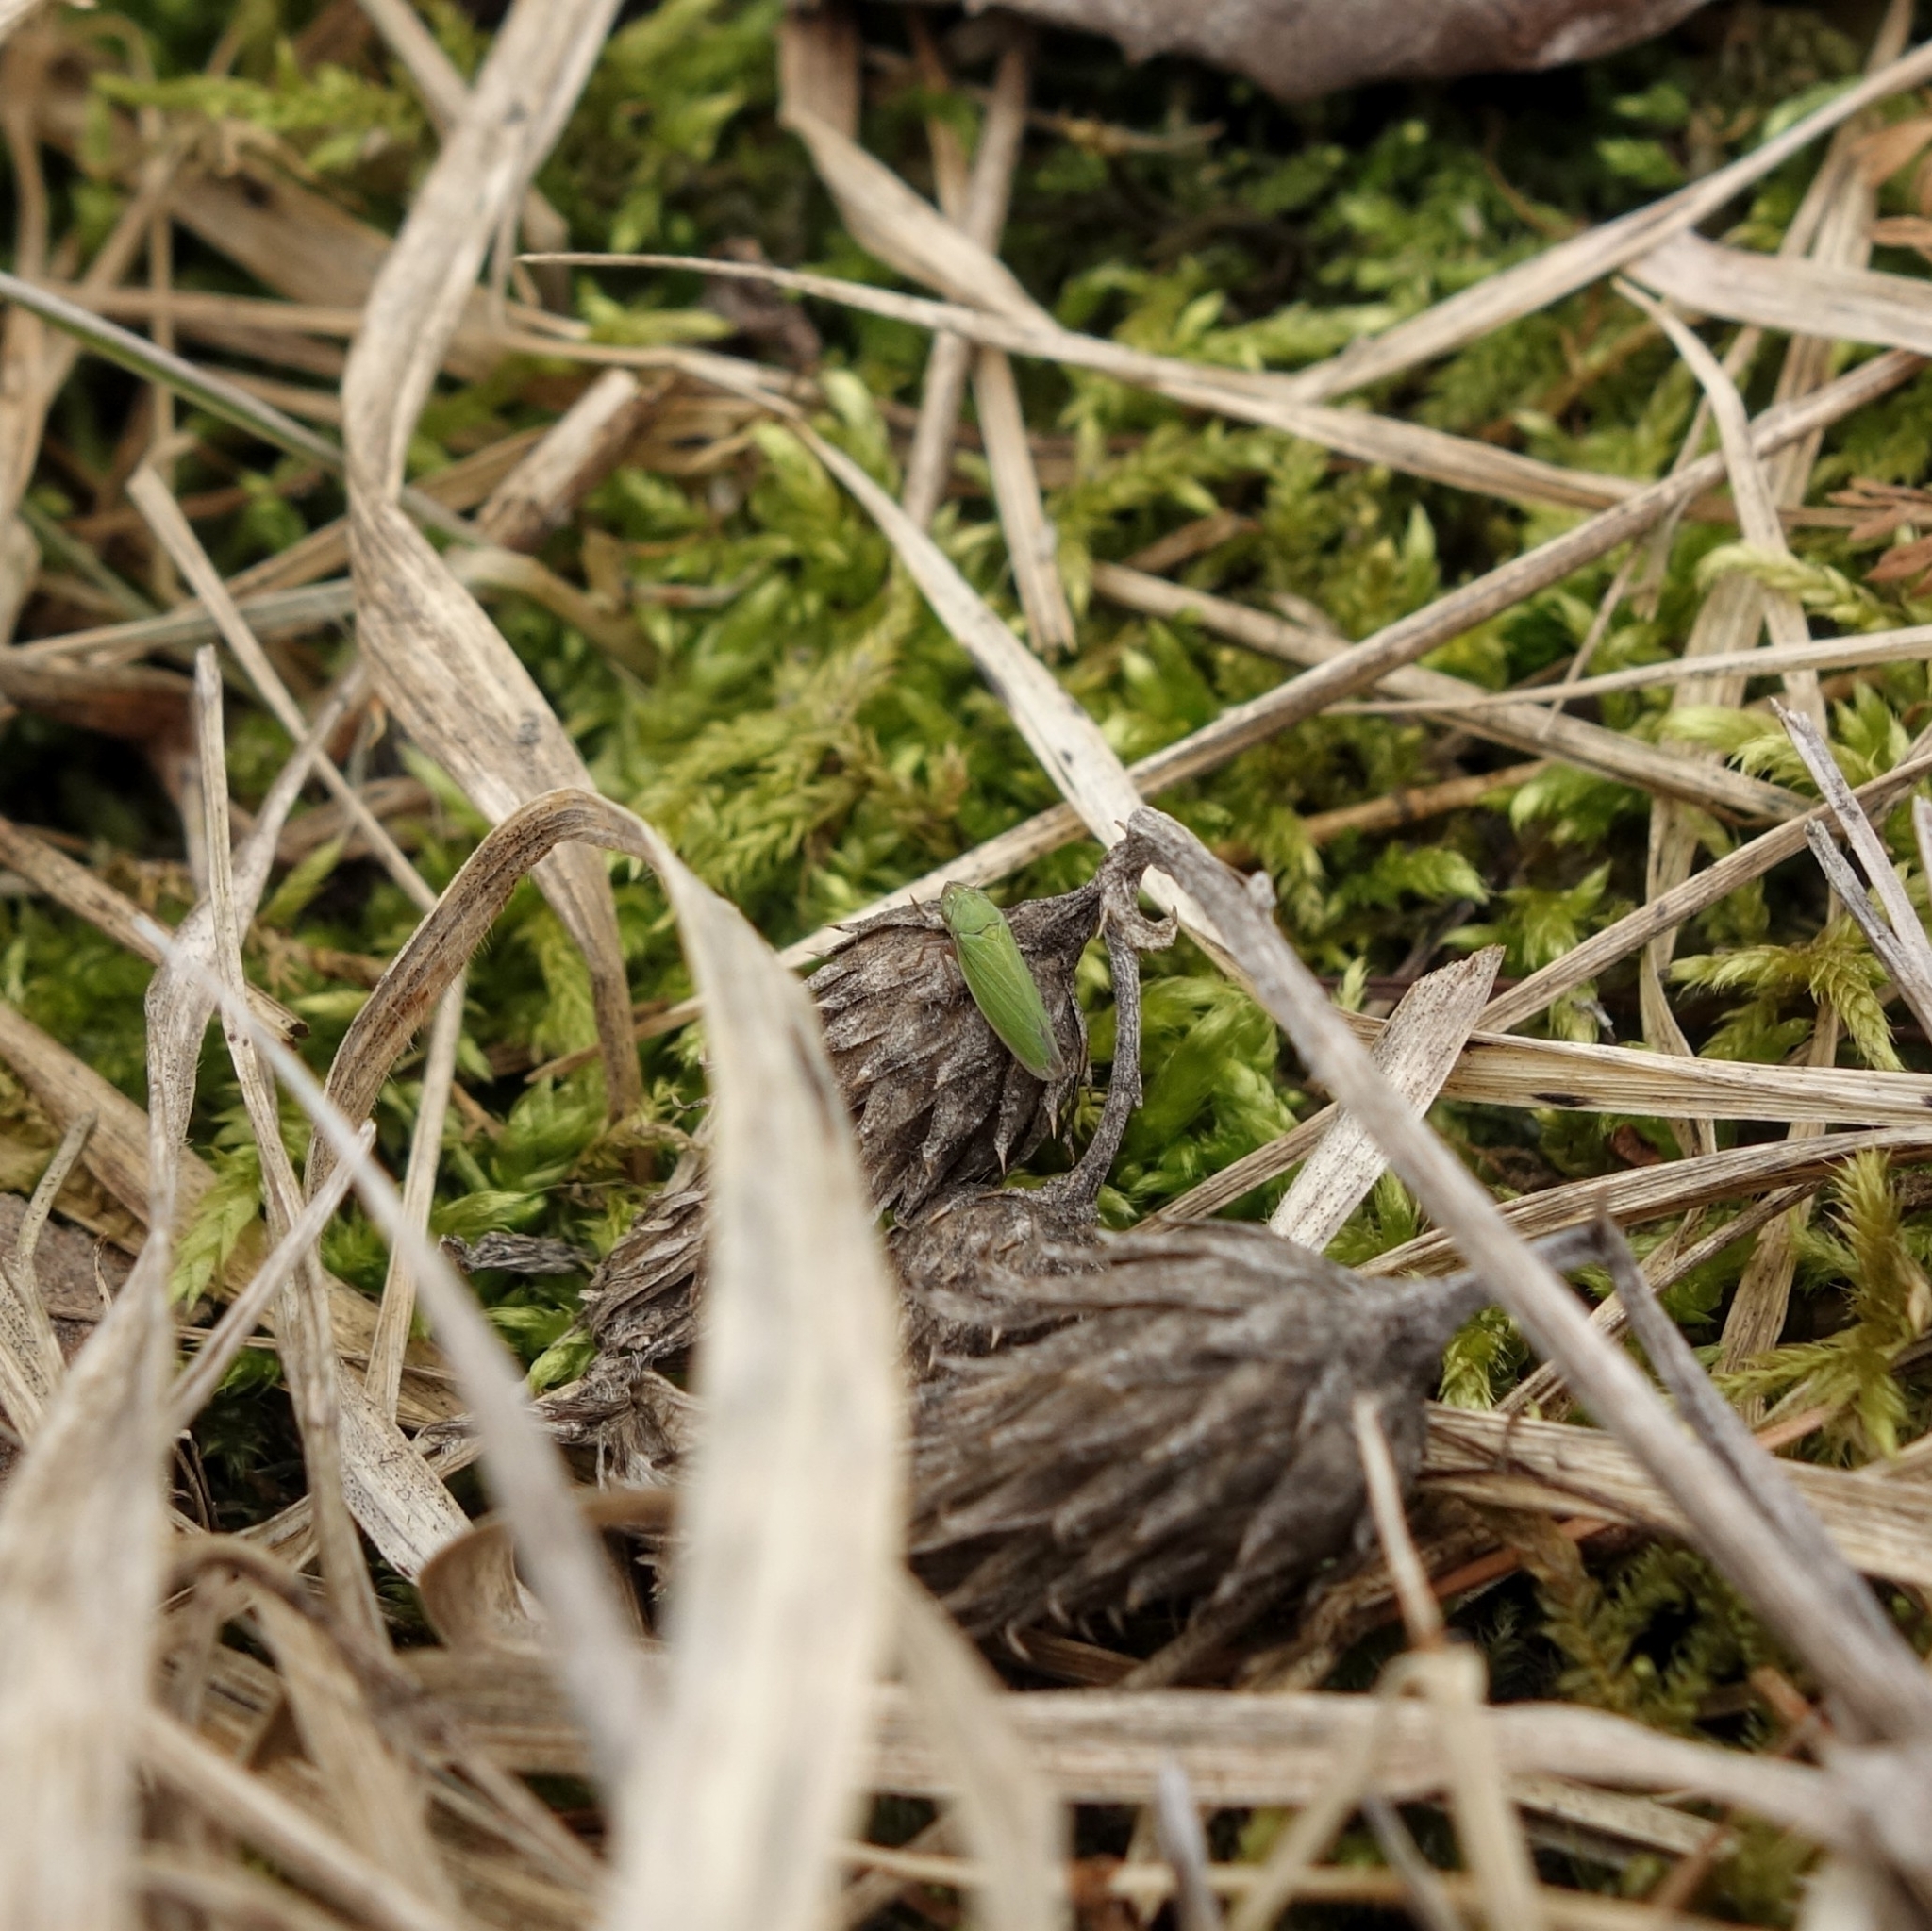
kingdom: Animalia
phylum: Arthropoda
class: Insecta
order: Hemiptera
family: Cicadellidae
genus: Helochara
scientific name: Helochara communis
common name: Bog leafhopper
